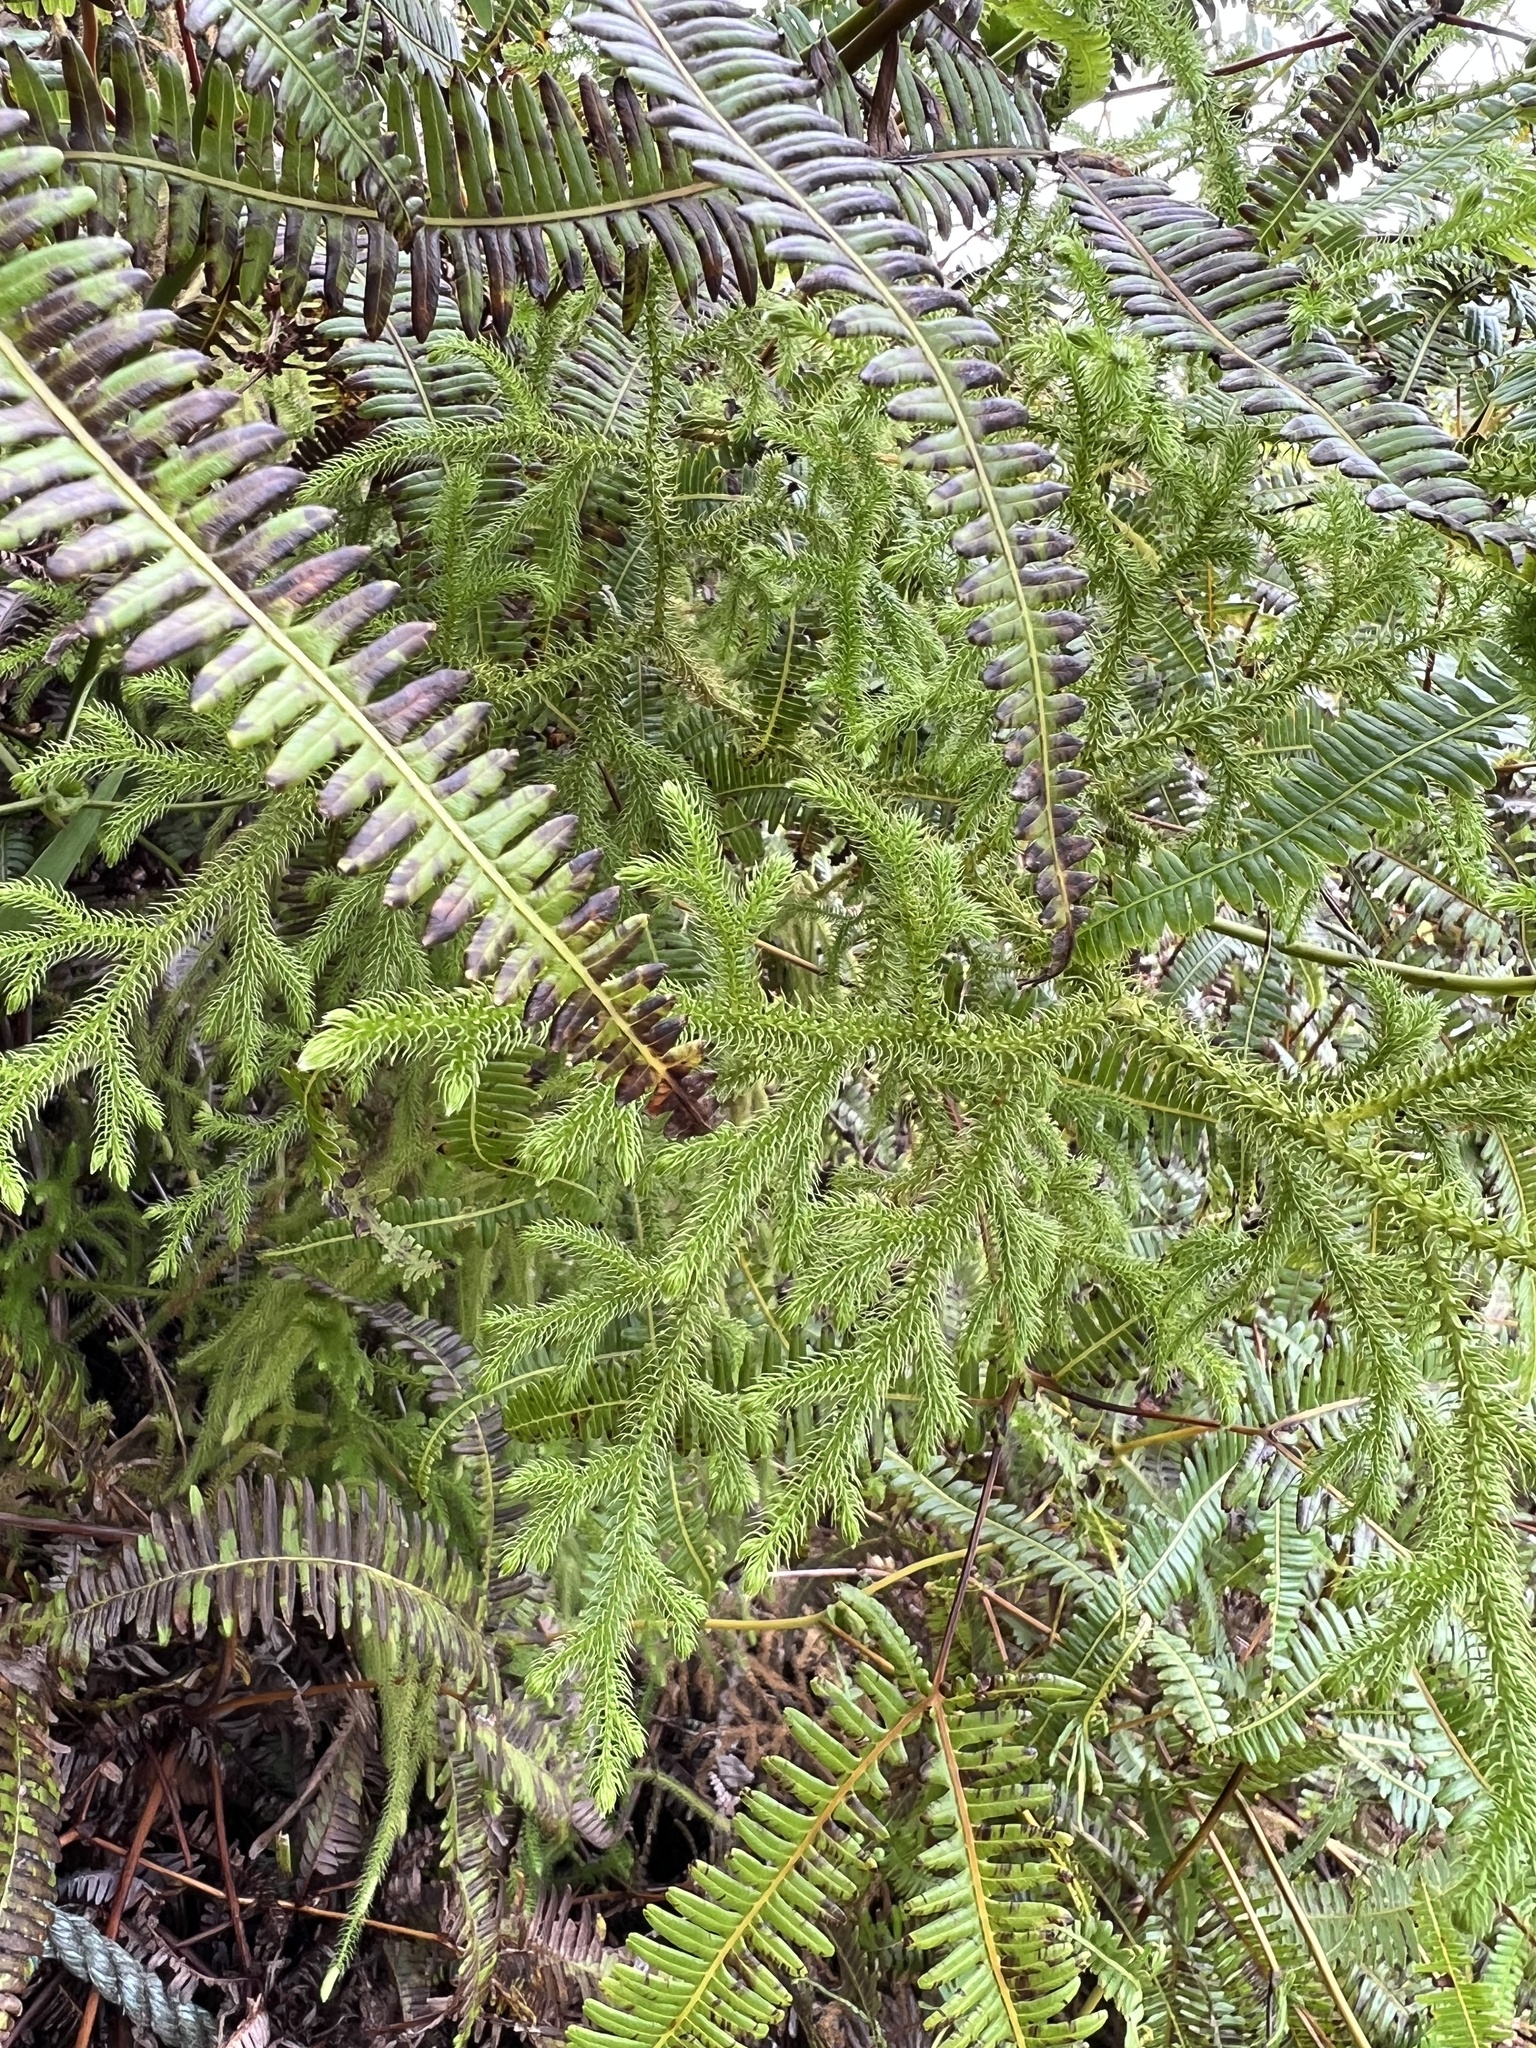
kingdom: Plantae
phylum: Tracheophyta
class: Lycopodiopsida
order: Lycopodiales
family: Lycopodiaceae
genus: Palhinhaea
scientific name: Palhinhaea cernua
